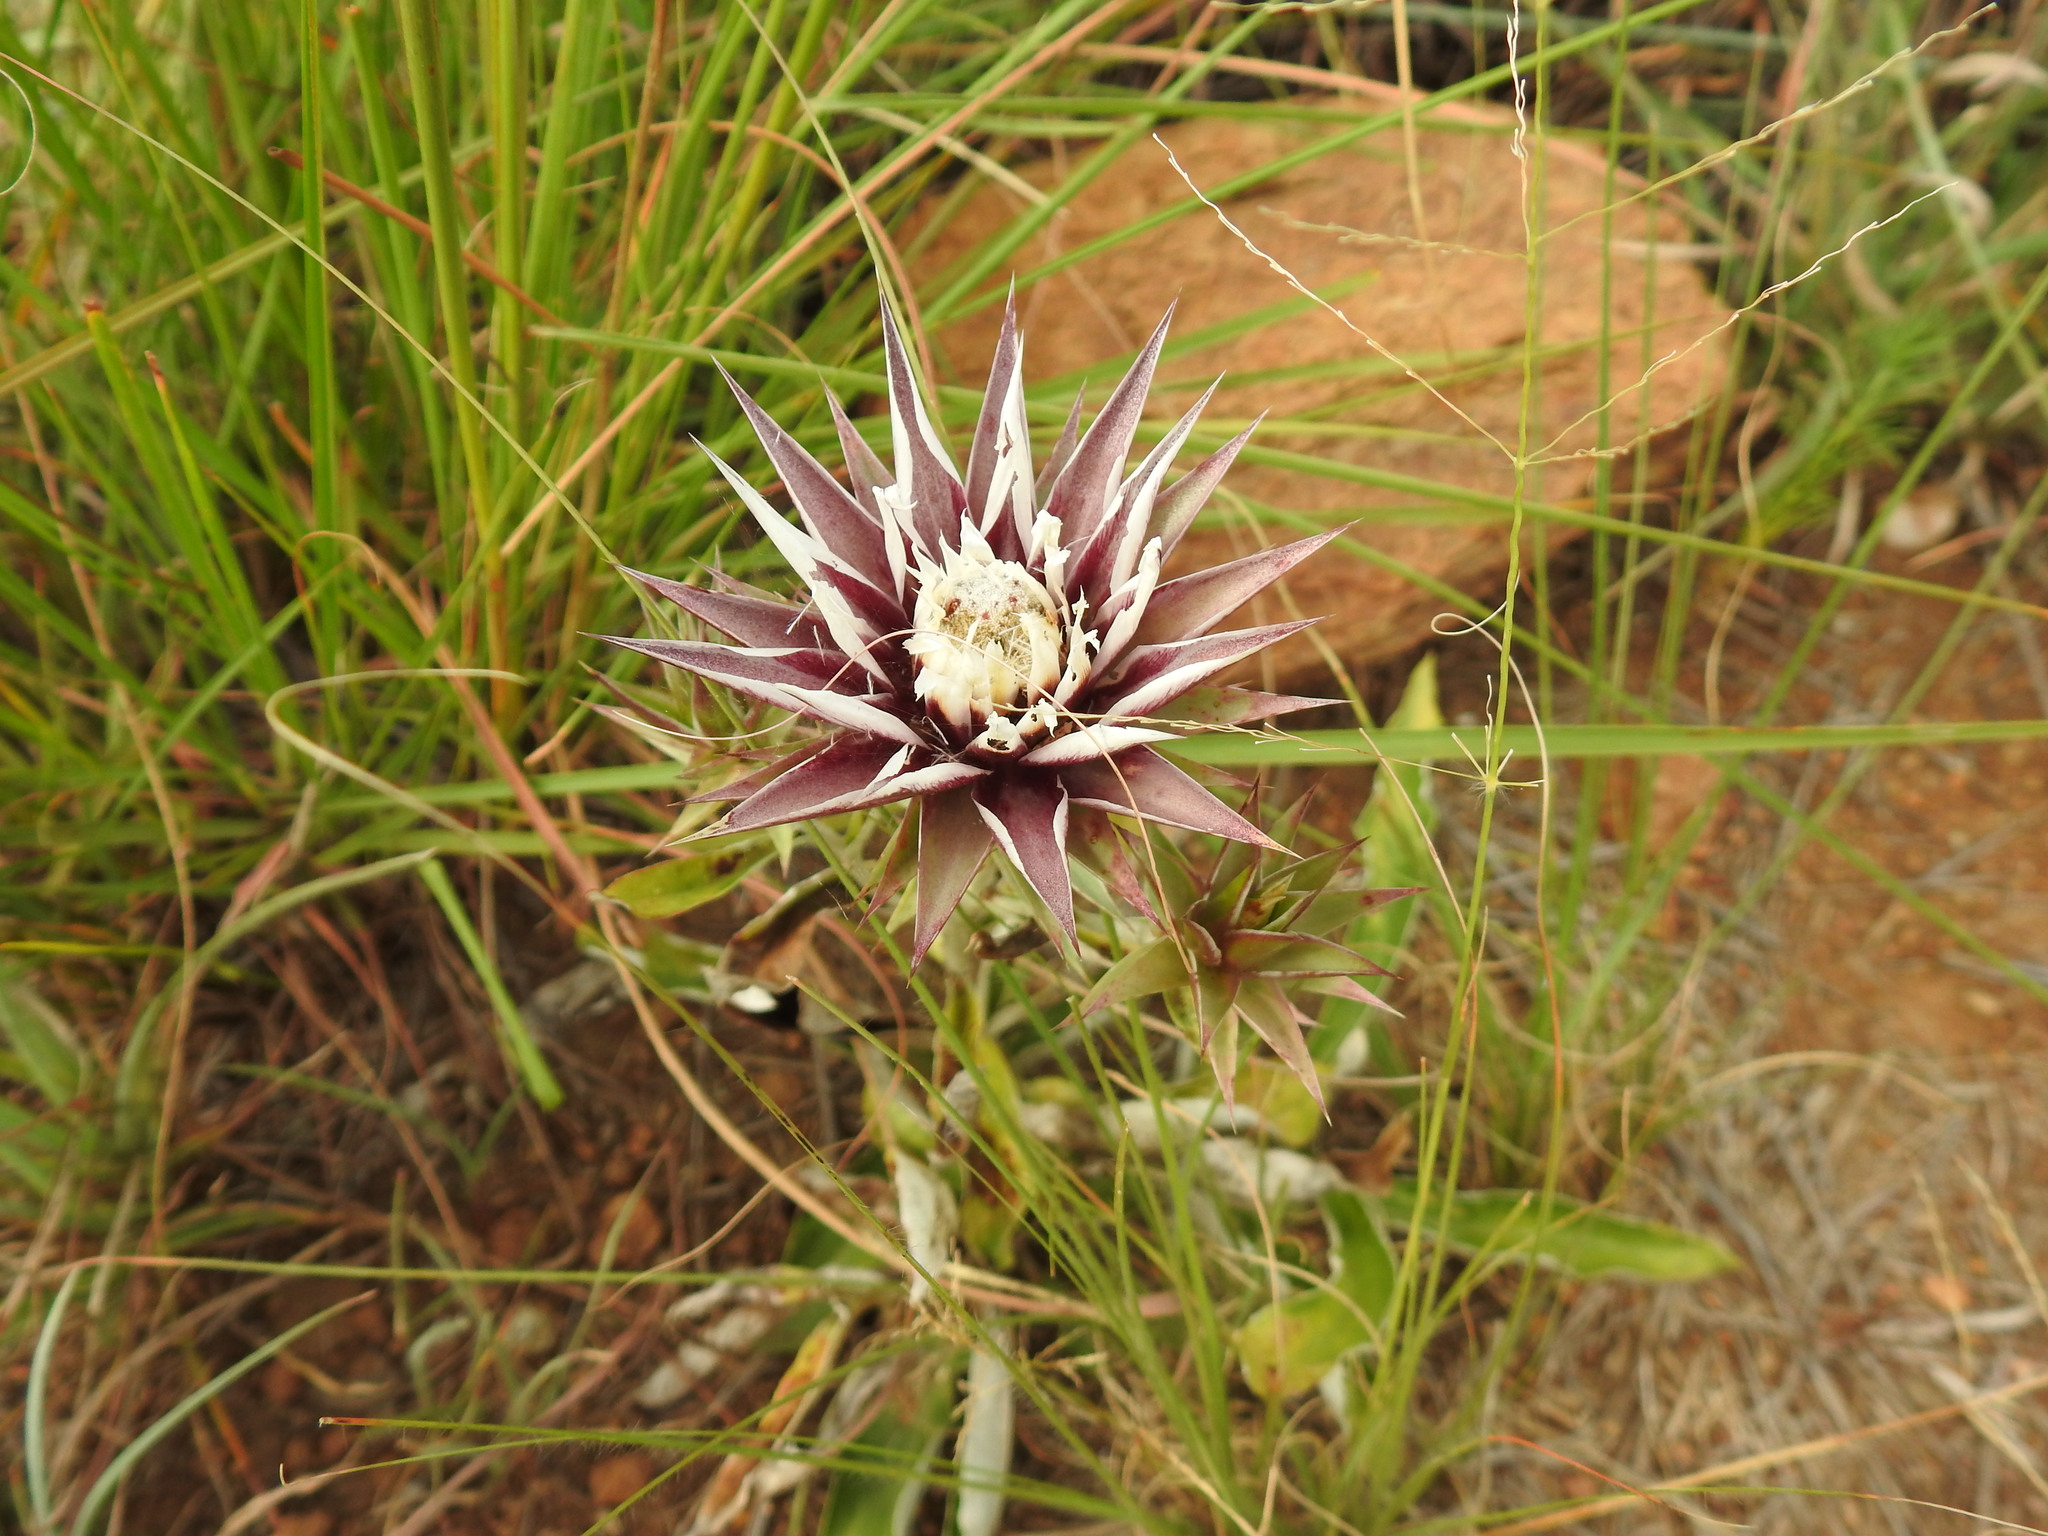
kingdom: Plantae
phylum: Tracheophyta
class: Magnoliopsida
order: Asterales
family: Asteraceae
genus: Macledium
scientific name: Macledium zeyheri
